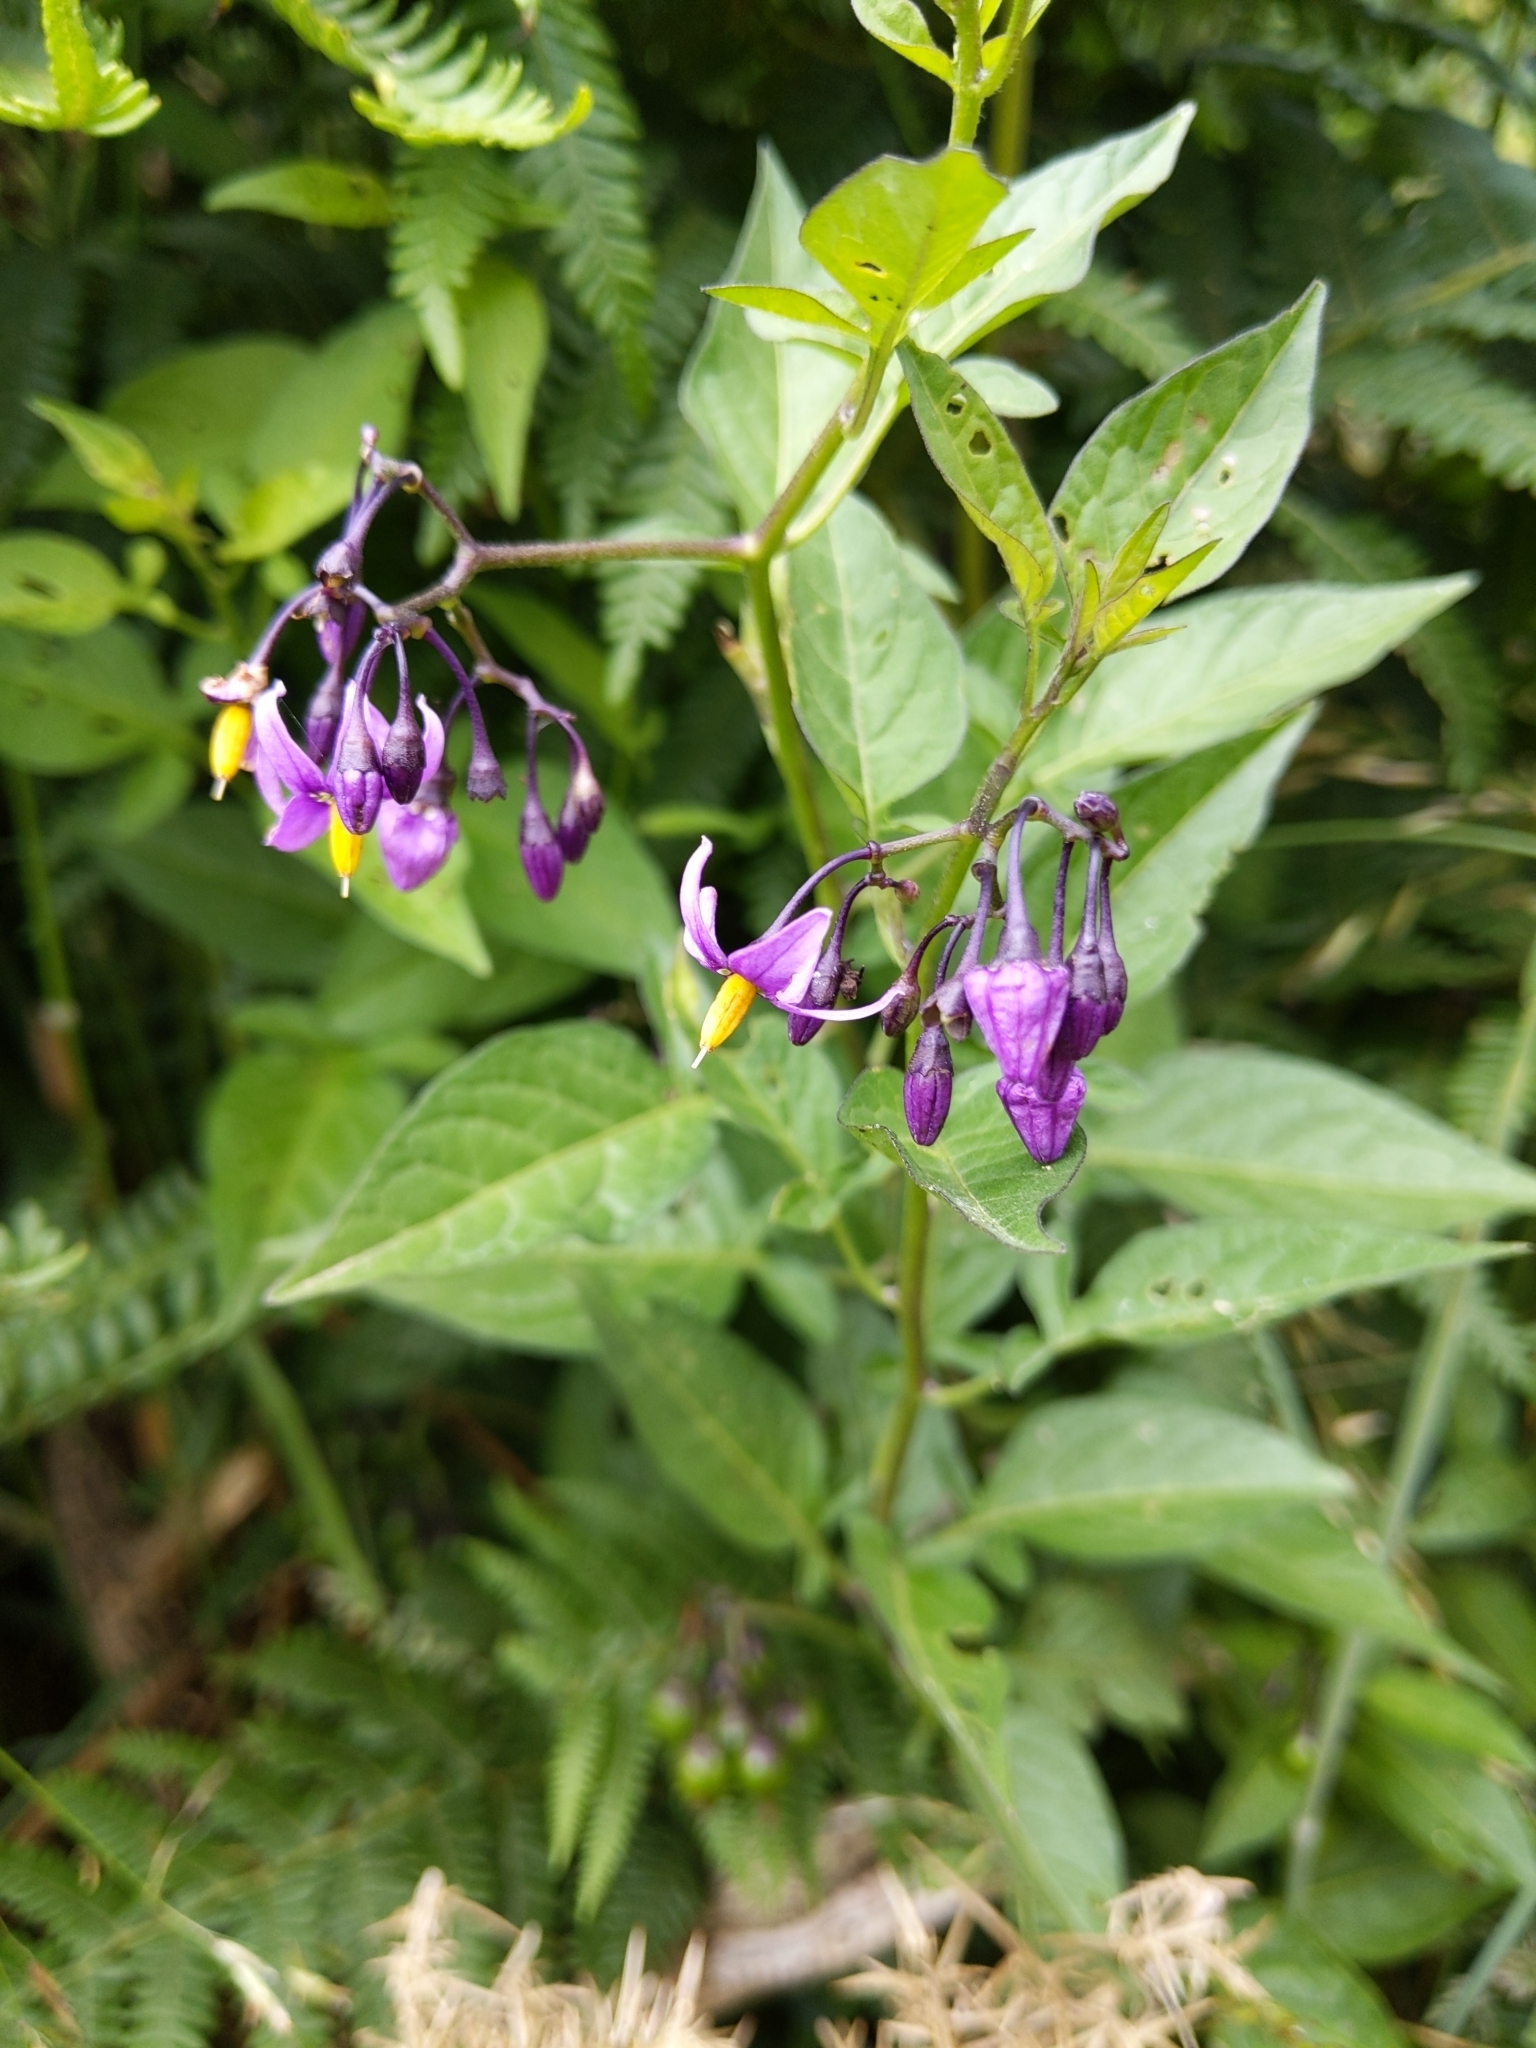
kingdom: Plantae
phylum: Tracheophyta
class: Magnoliopsida
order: Solanales
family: Solanaceae
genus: Solanum
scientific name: Solanum dulcamara
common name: Climbing nightshade
